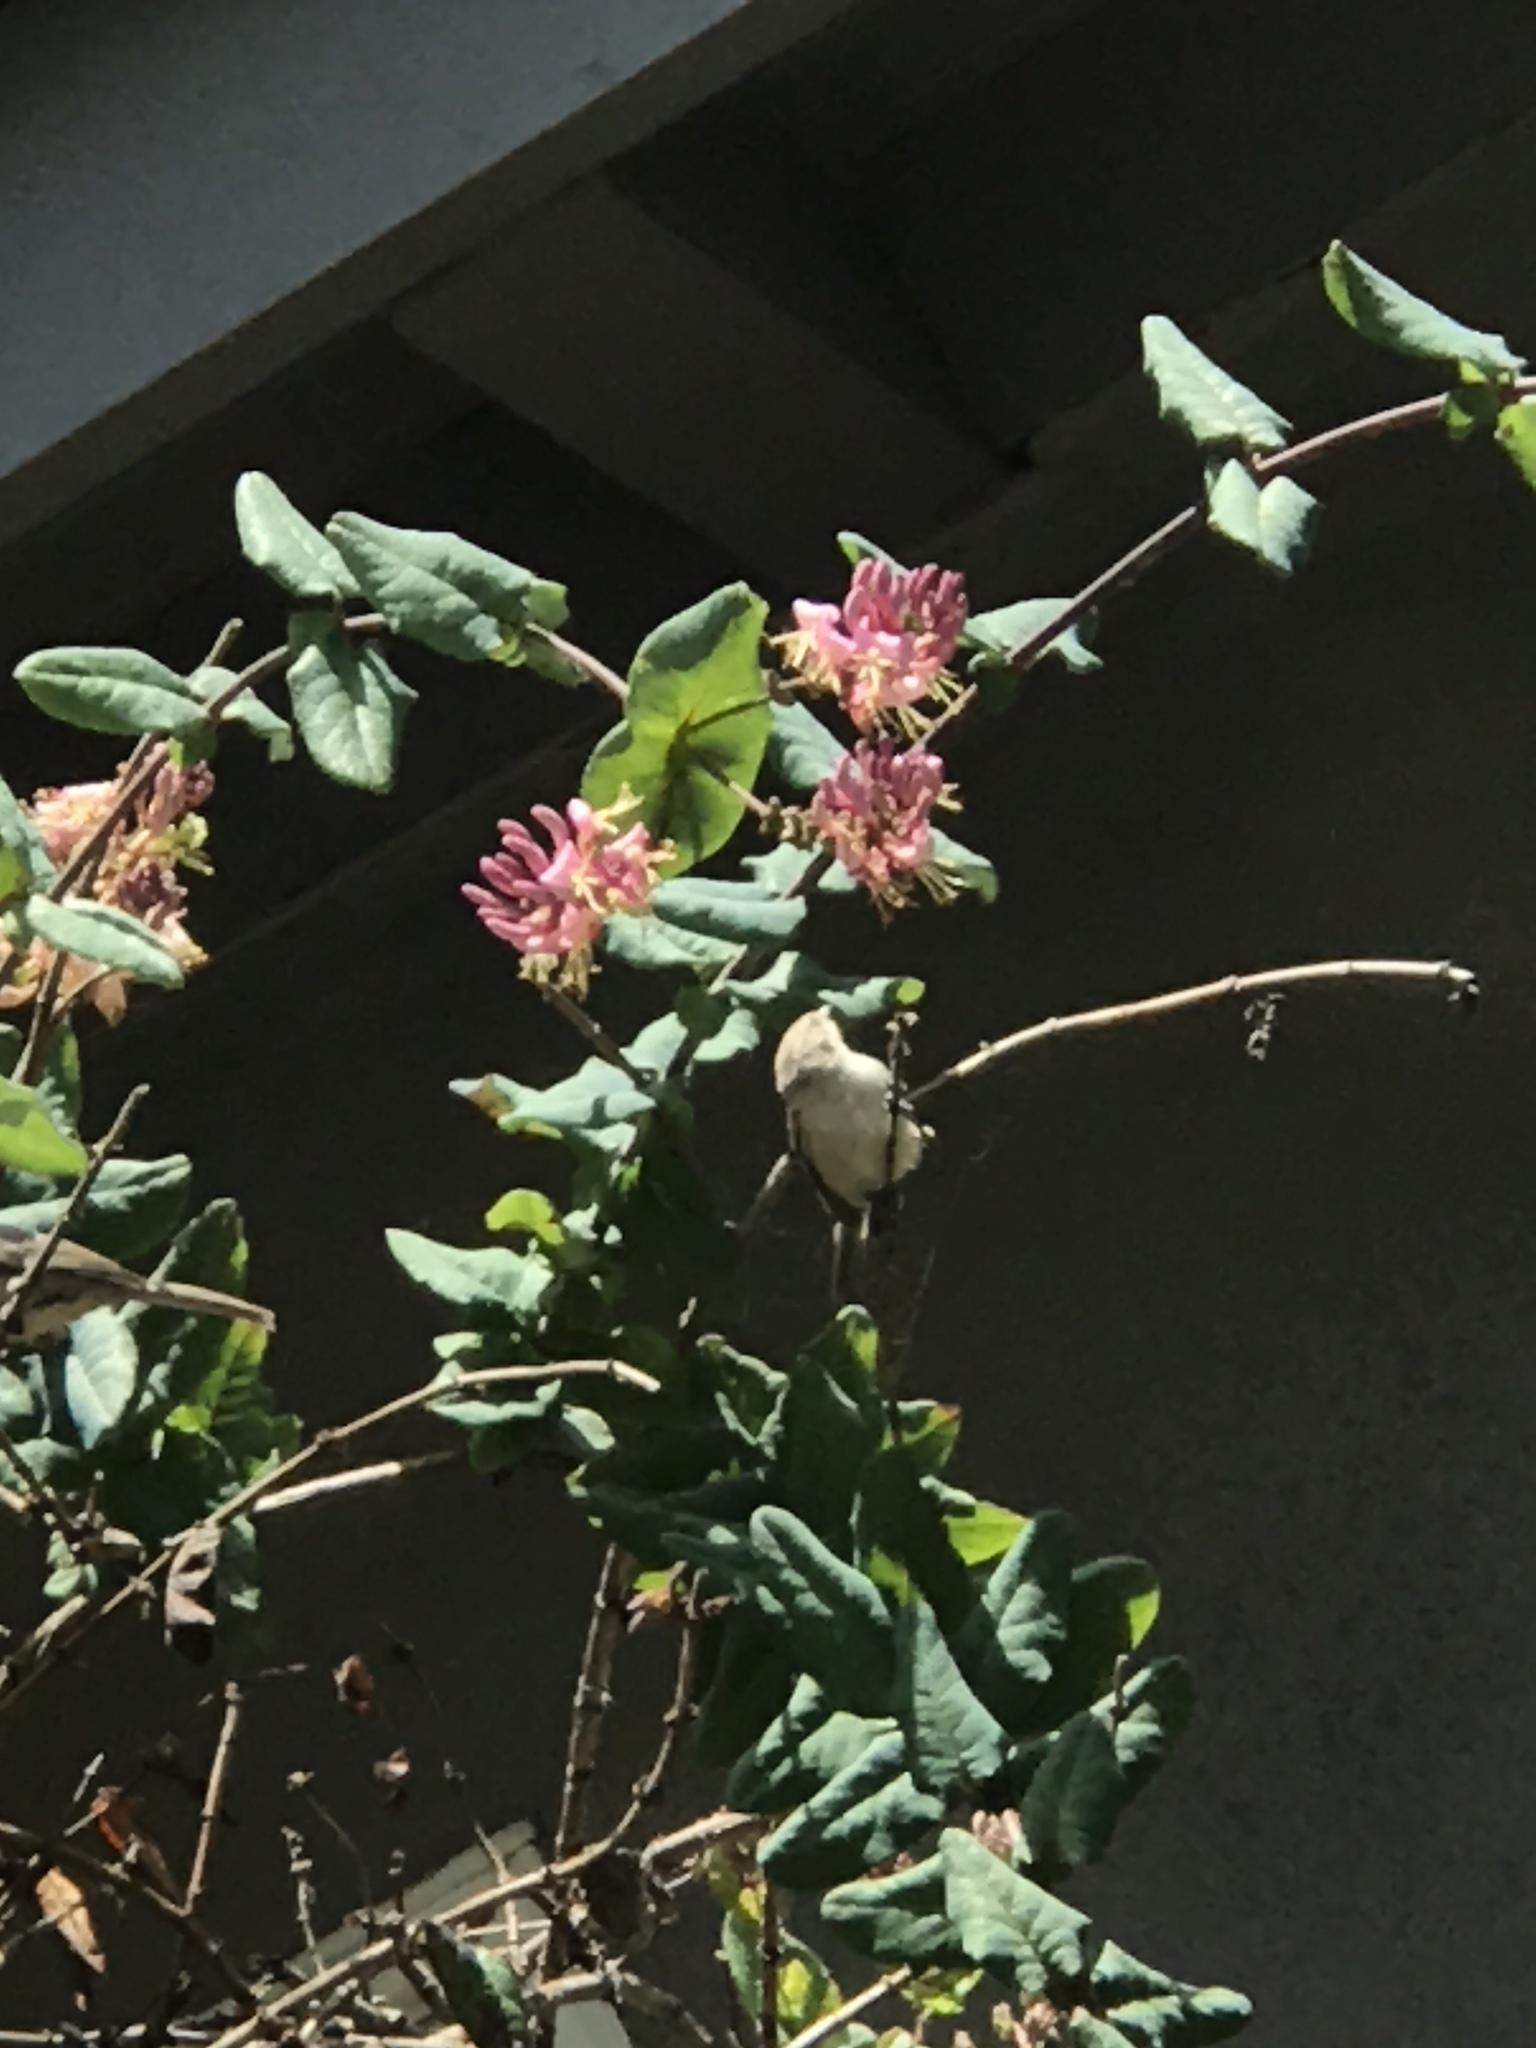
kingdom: Animalia
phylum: Chordata
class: Aves
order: Passeriformes
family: Aegithalidae
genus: Psaltriparus
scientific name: Psaltriparus minimus
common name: American bushtit
